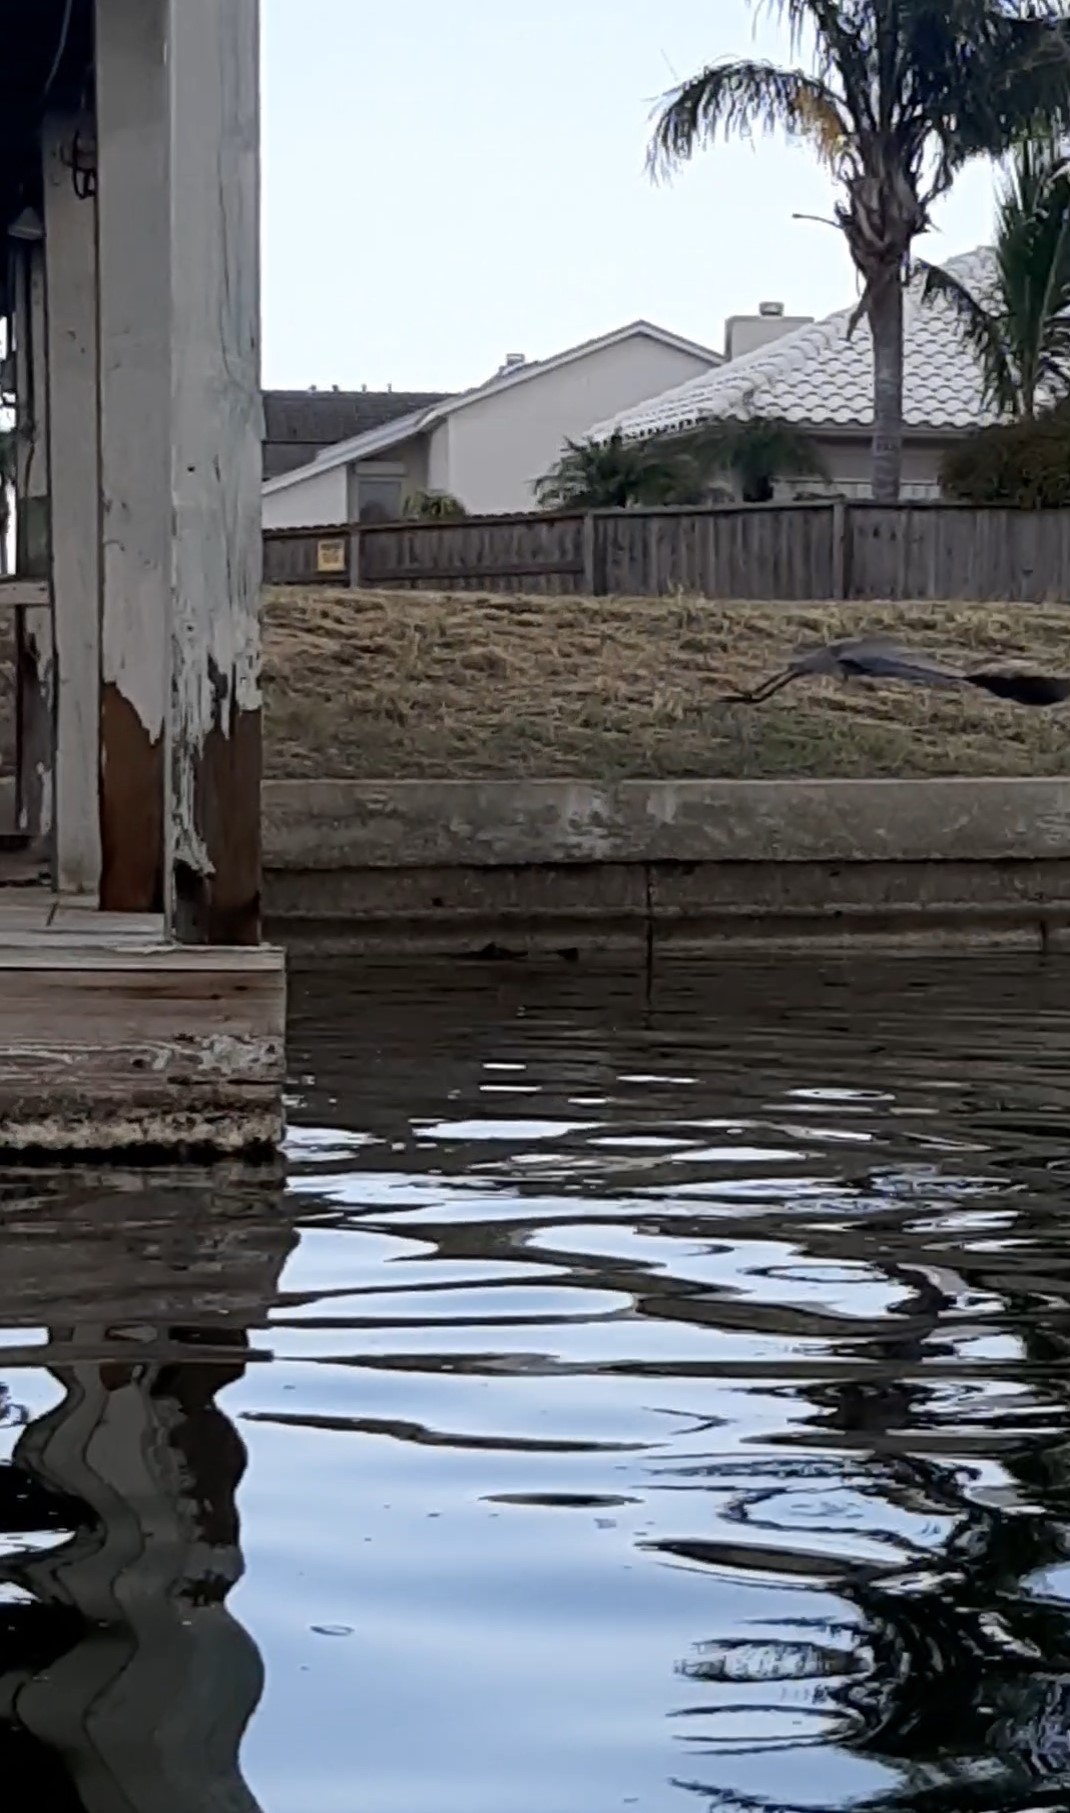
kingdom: Animalia
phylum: Chordata
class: Aves
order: Pelecaniformes
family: Ardeidae
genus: Ardea
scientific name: Ardea herodias
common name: Great blue heron
